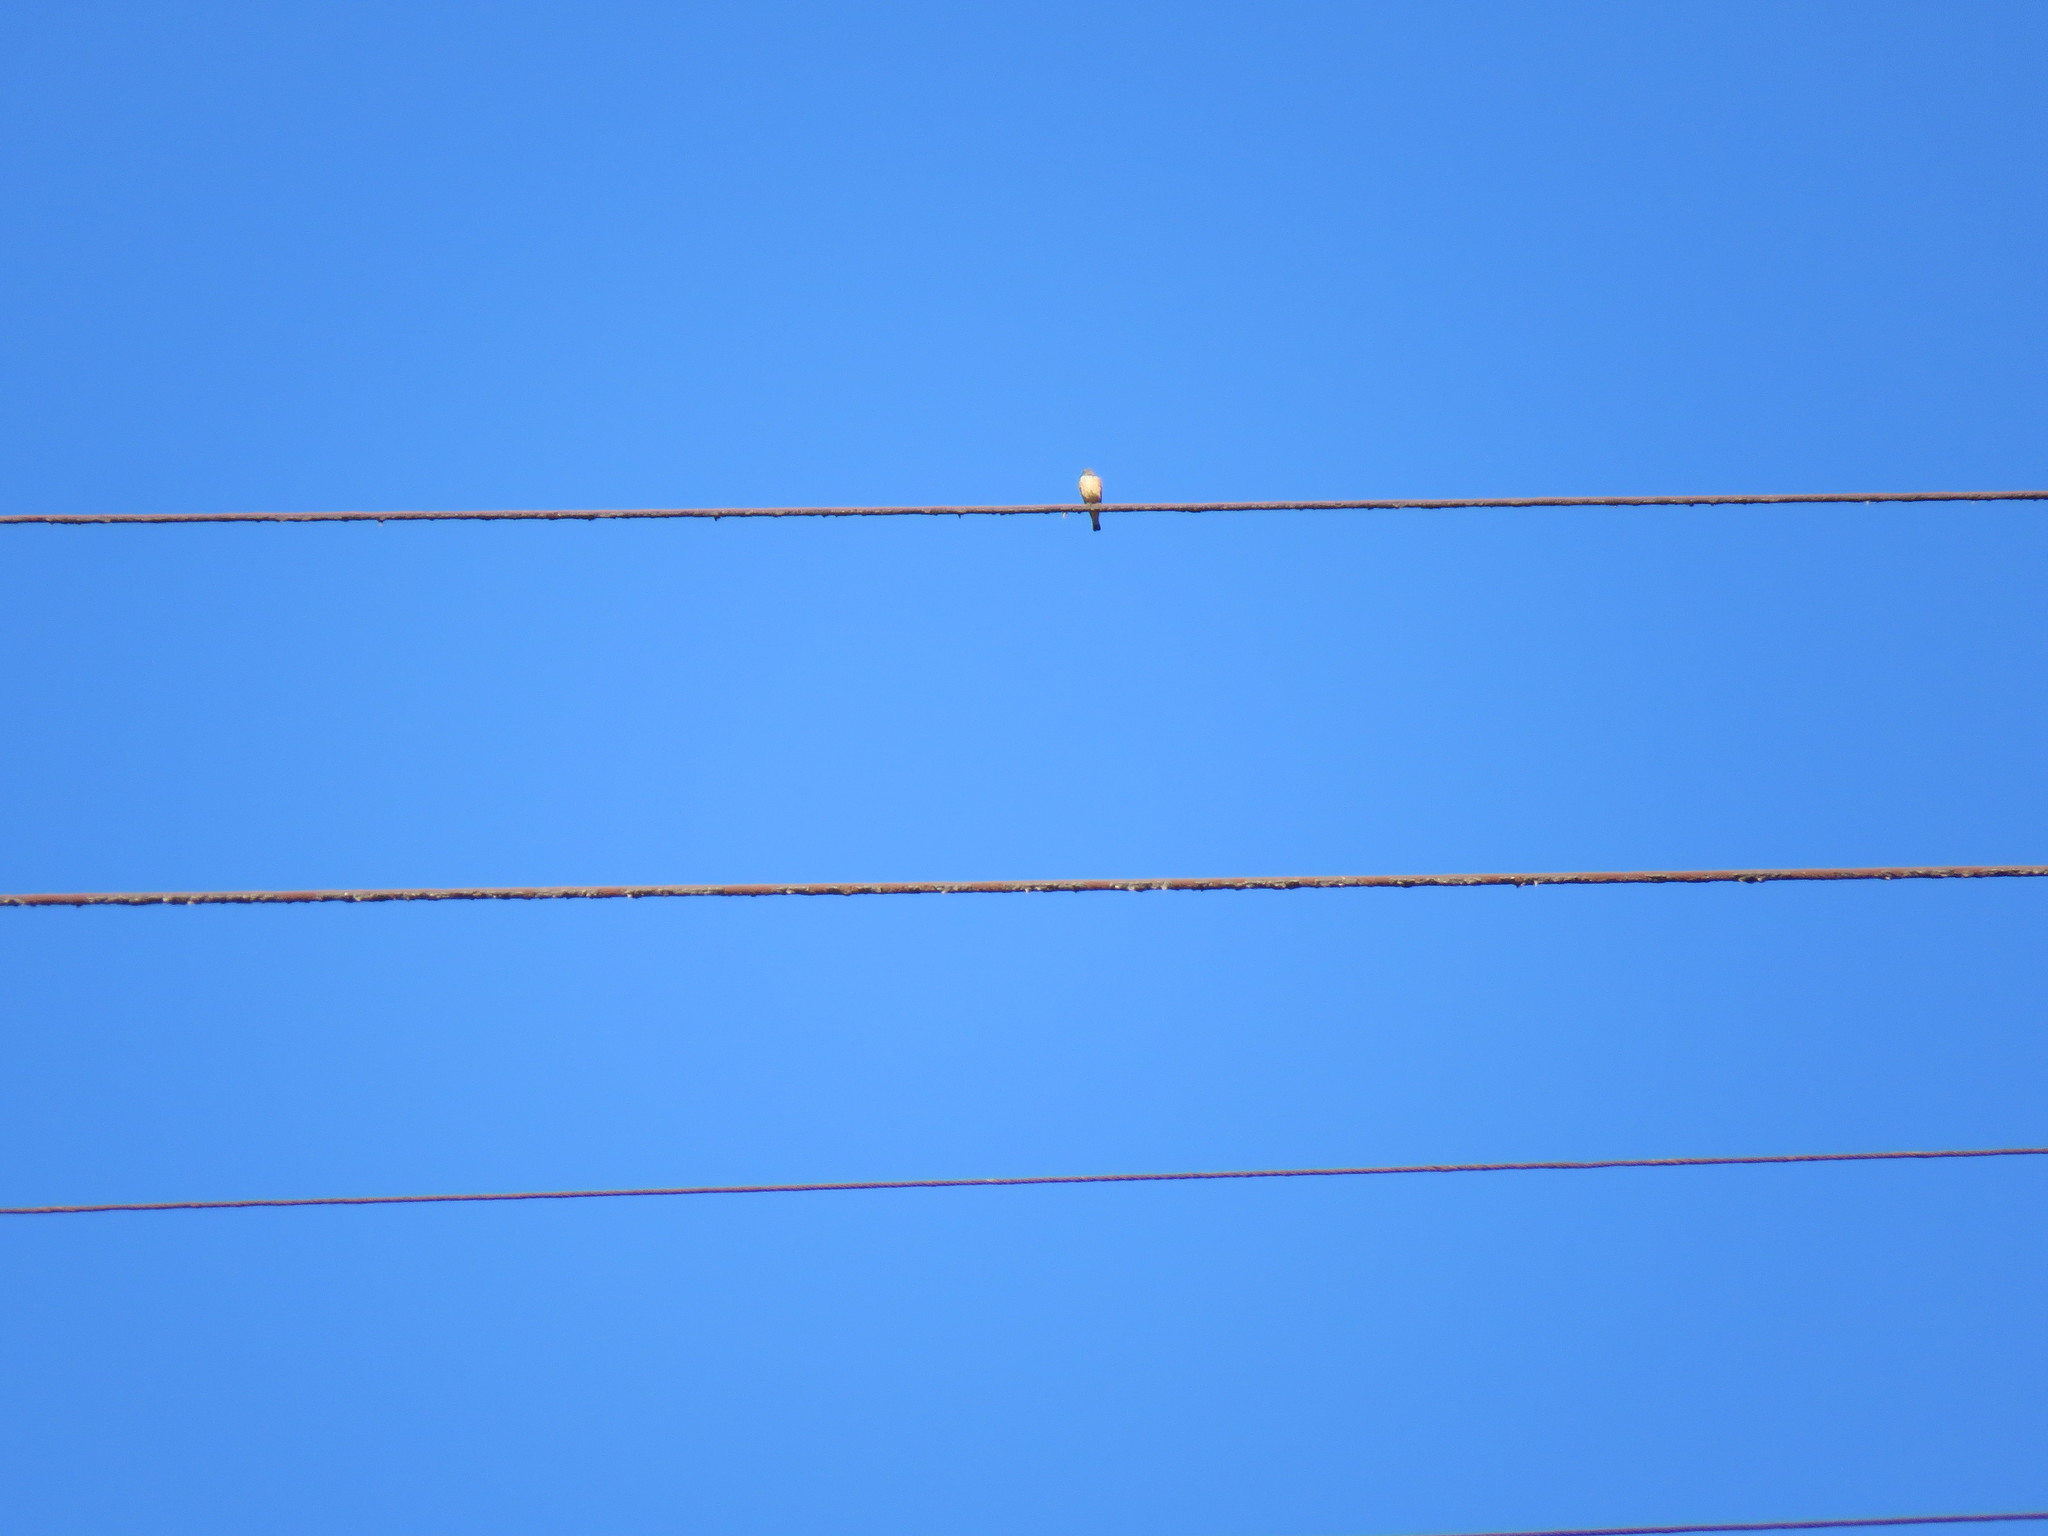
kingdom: Animalia
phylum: Chordata
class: Aves
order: Passeriformes
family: Tyrannidae
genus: Hirundinea
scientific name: Hirundinea ferruginea
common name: Cliff flycatcher
